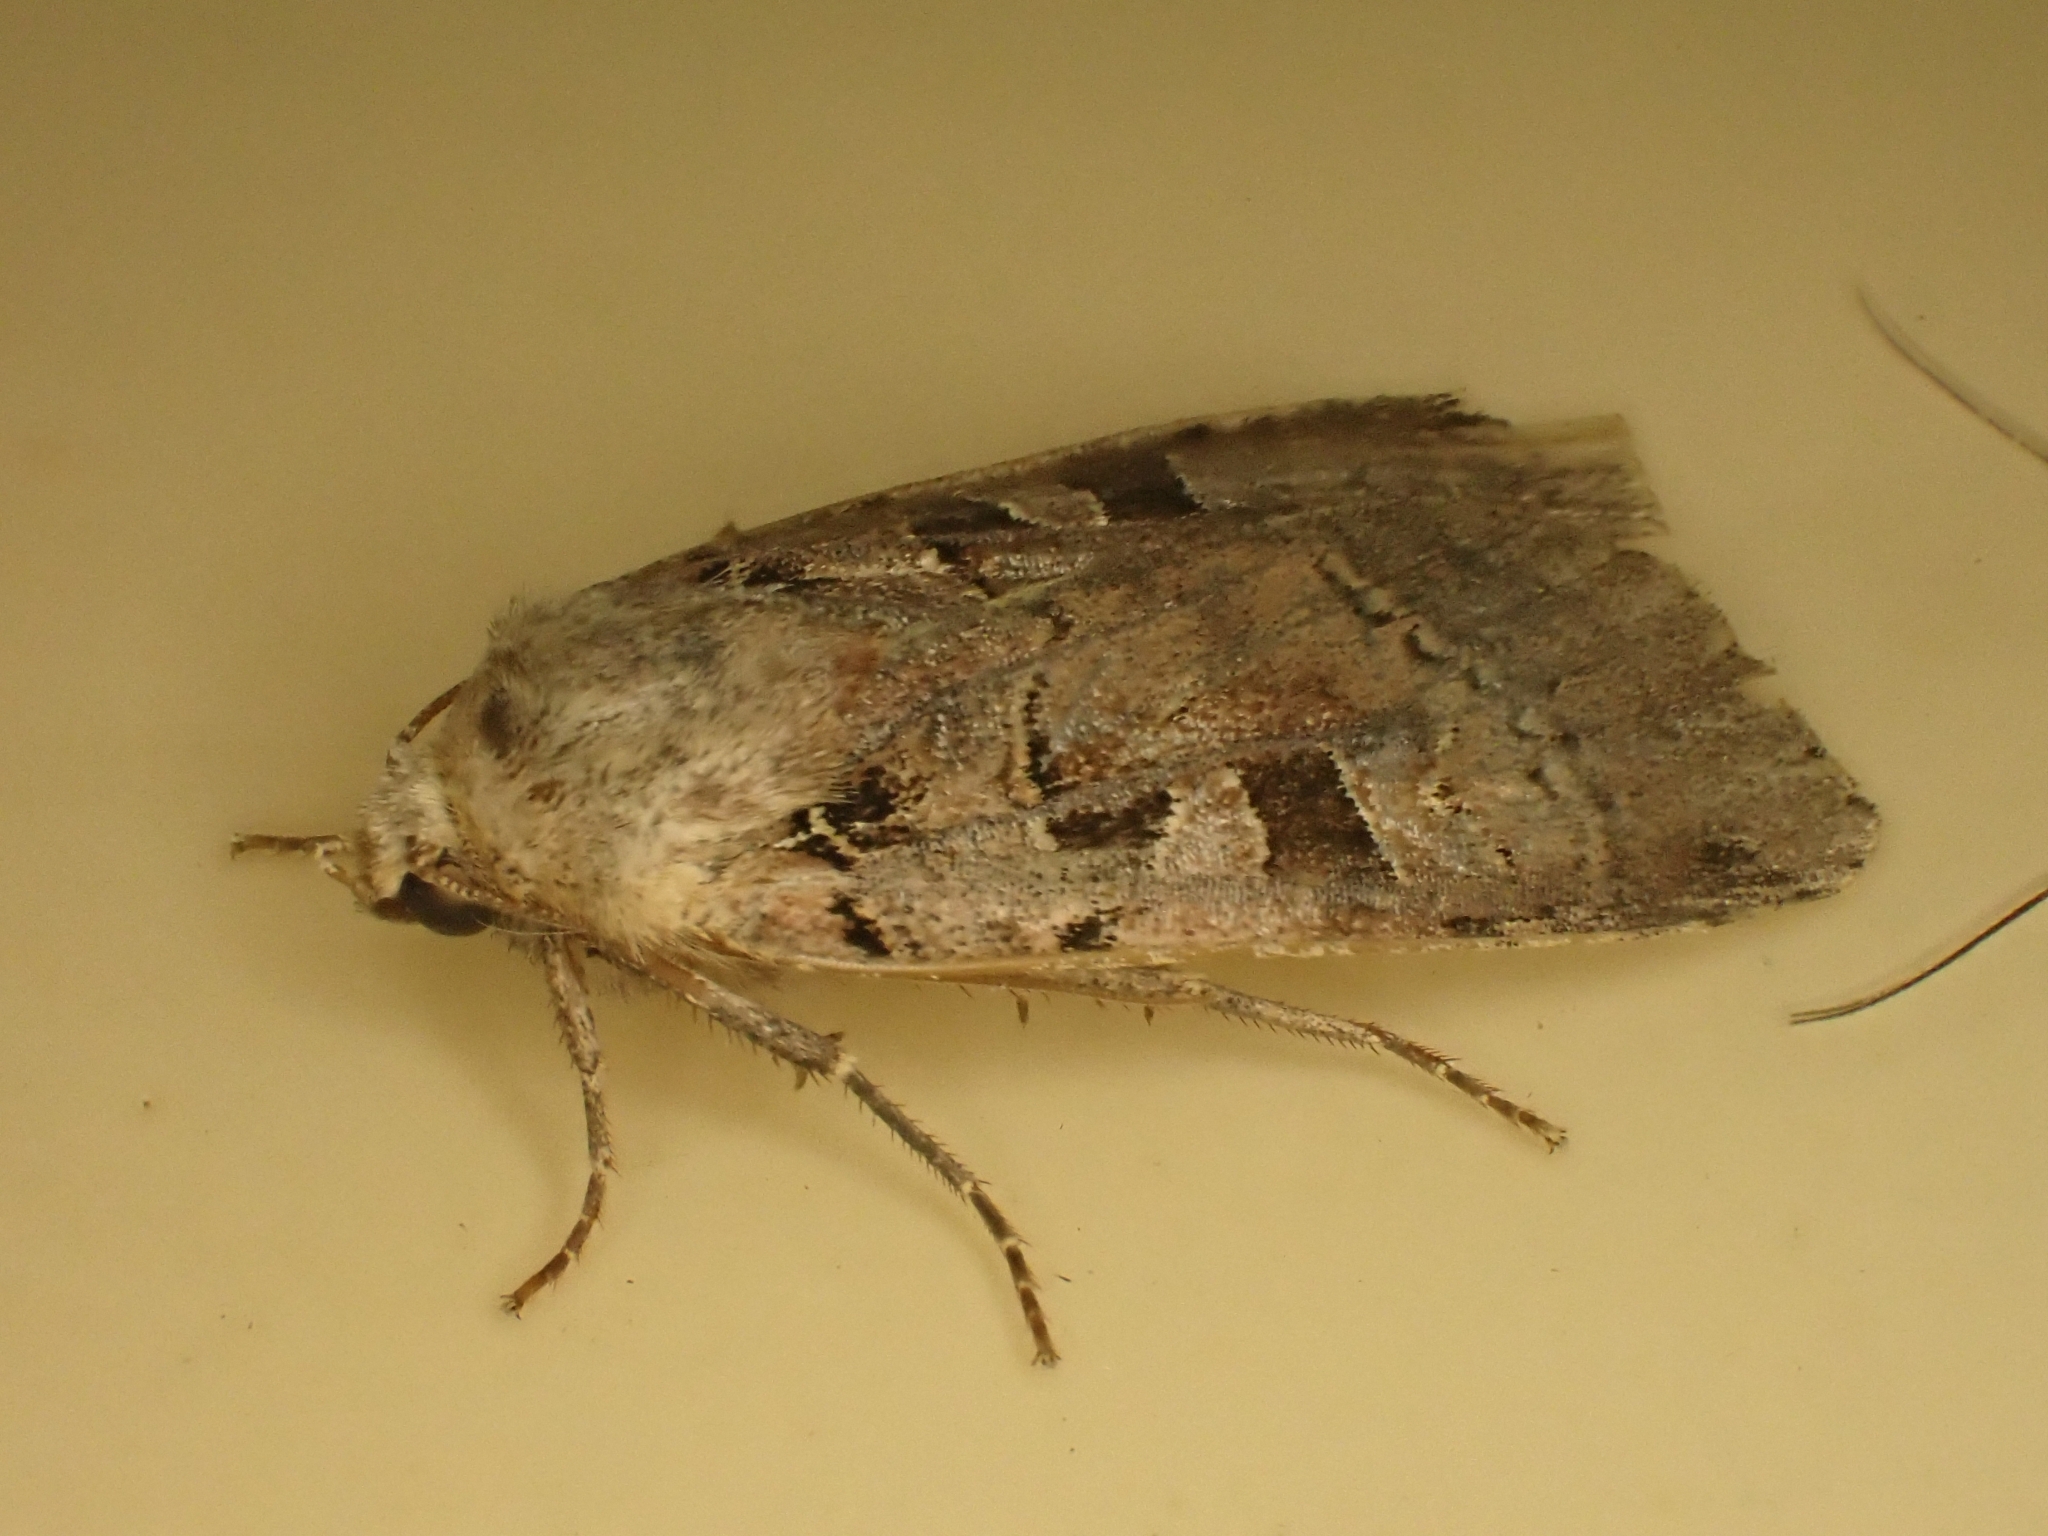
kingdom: Animalia
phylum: Arthropoda
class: Insecta
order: Lepidoptera
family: Noctuidae
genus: Xestia
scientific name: Xestia triangulum
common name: Double square-spot
